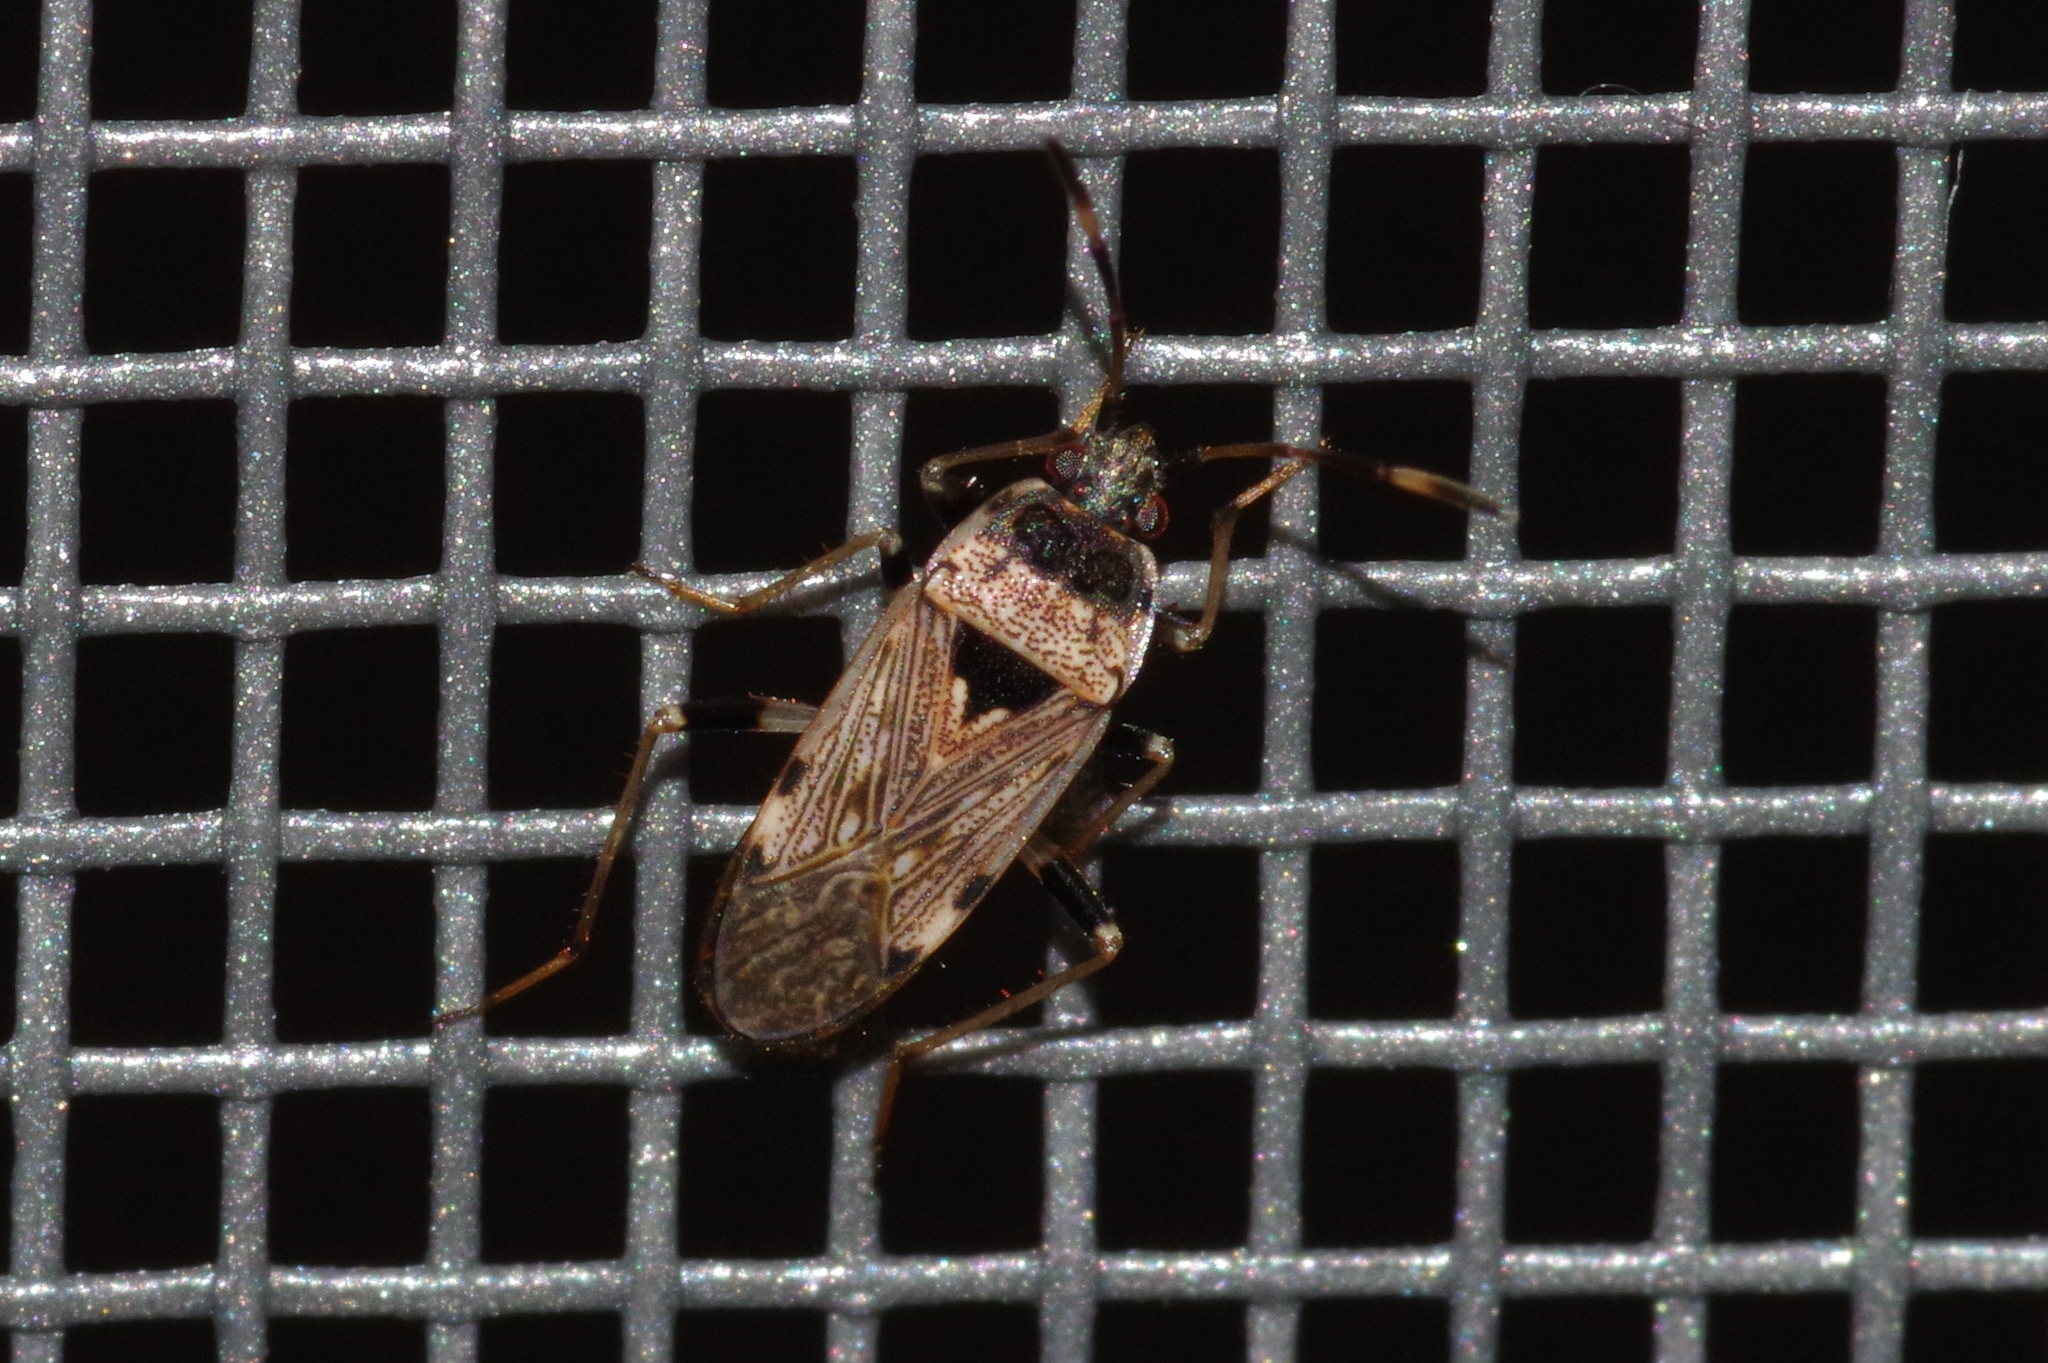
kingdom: Animalia
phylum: Arthropoda
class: Insecta
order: Hemiptera
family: Rhyparochromidae
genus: Elasmolomus
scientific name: Elasmolomus v-album
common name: Seed bug
